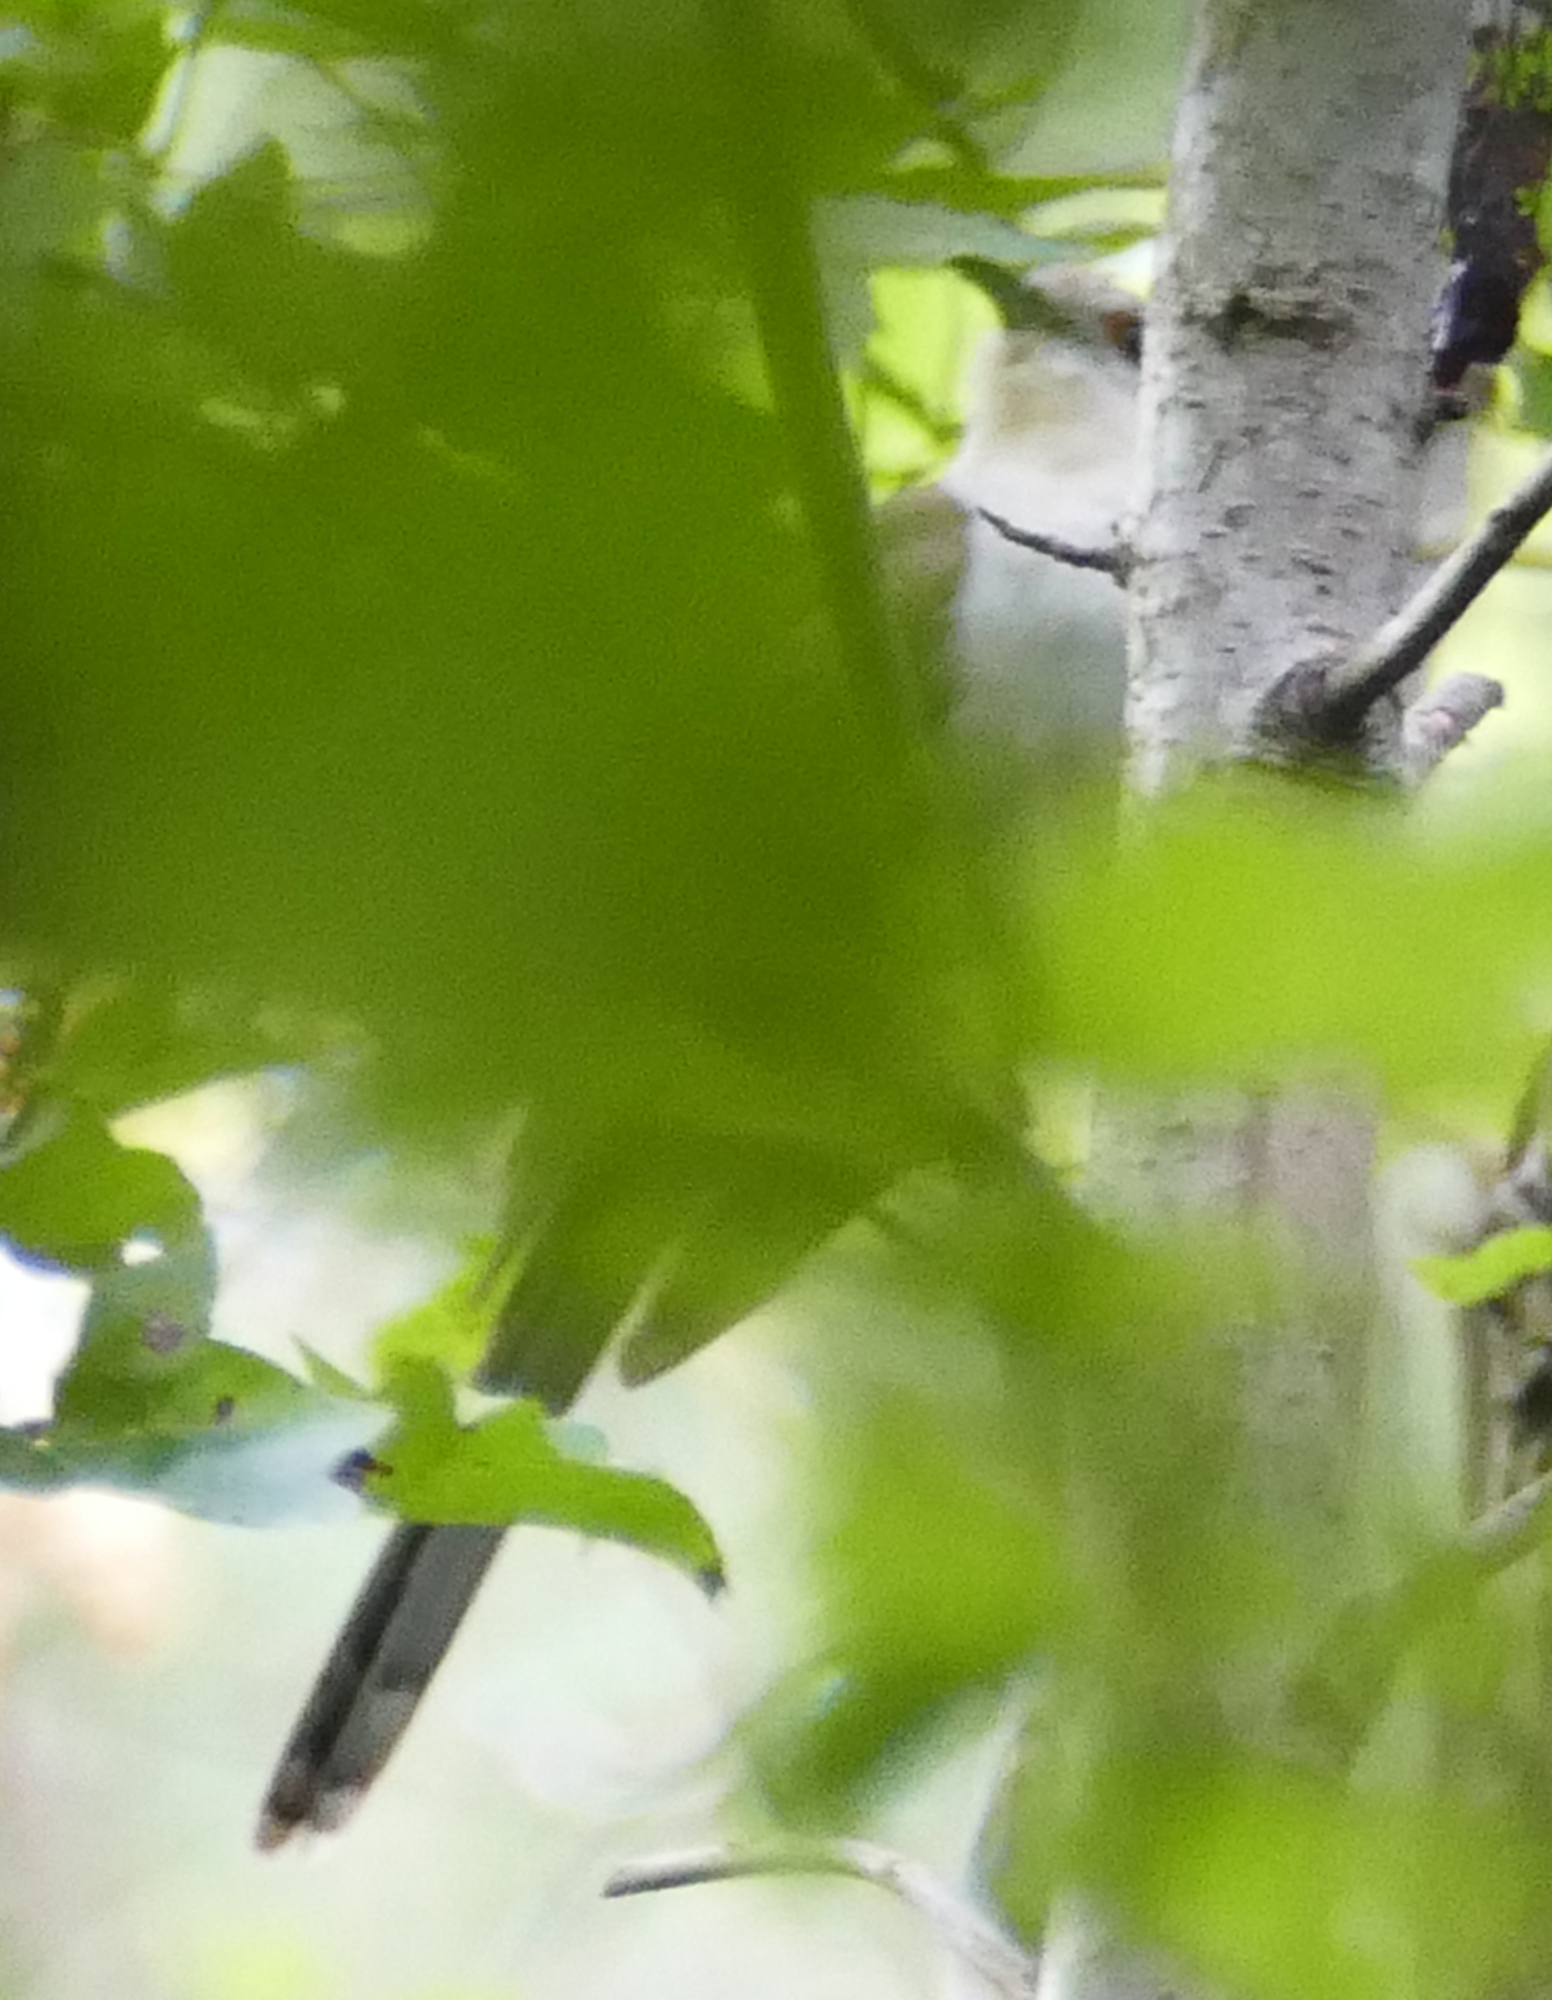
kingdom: Animalia
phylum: Chordata
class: Aves
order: Cuculiformes
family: Cuculidae
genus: Coccyzus
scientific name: Coccyzus erythropthalmus
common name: Black-billed cuckoo
